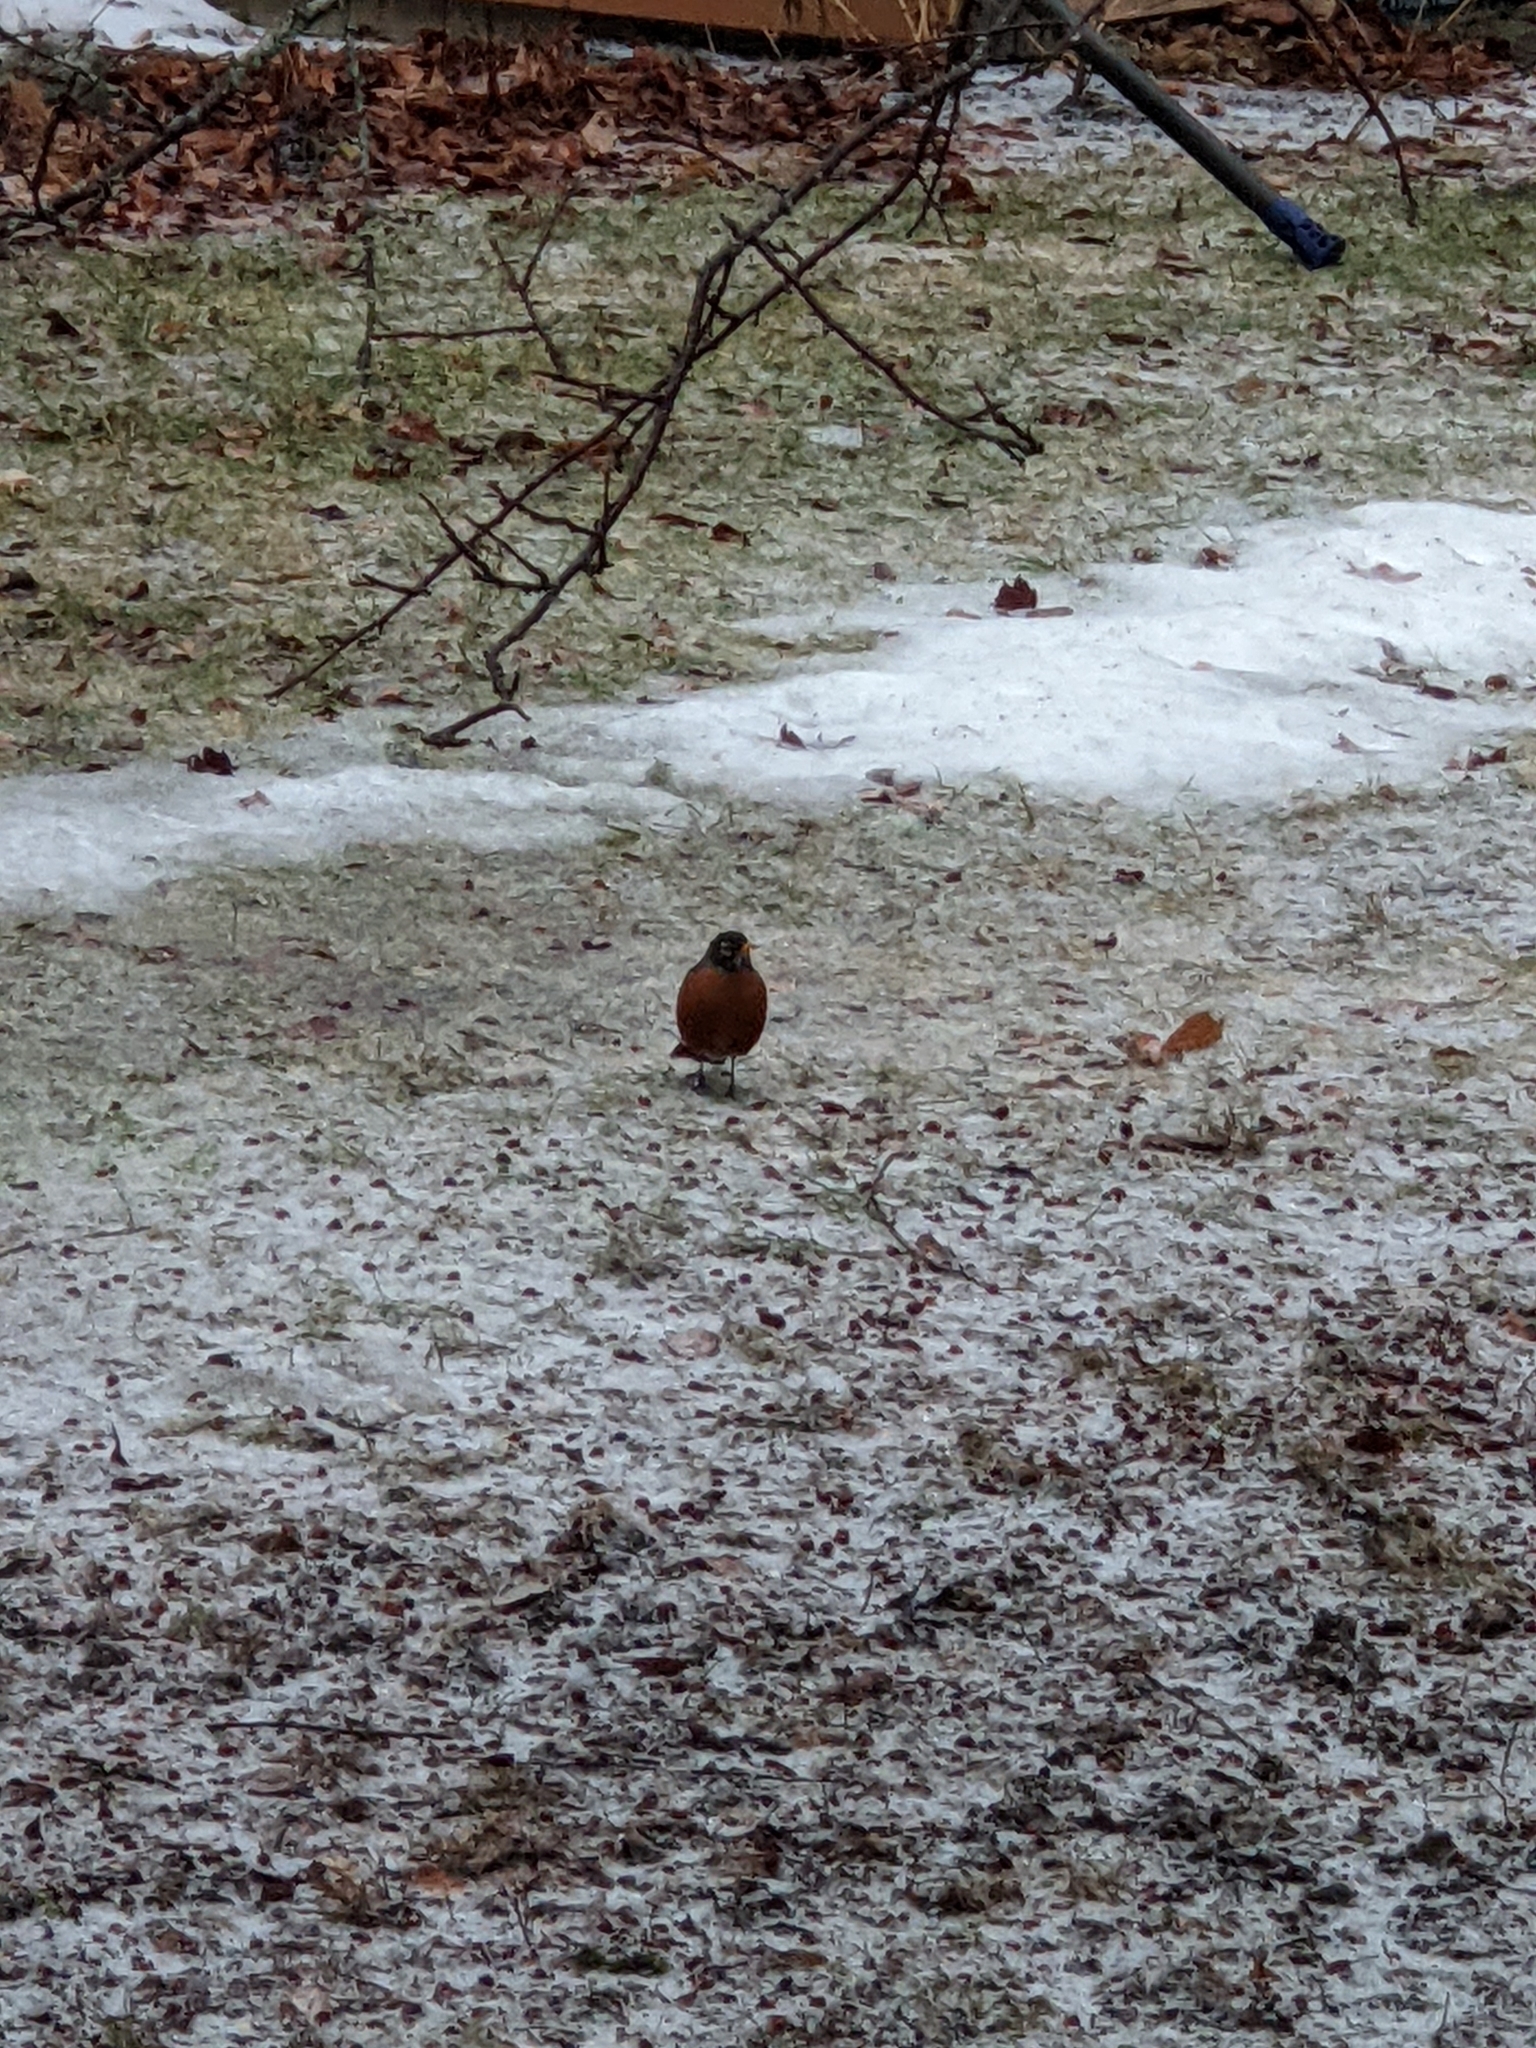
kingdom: Animalia
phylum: Chordata
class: Aves
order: Passeriformes
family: Turdidae
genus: Turdus
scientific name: Turdus migratorius
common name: American robin
